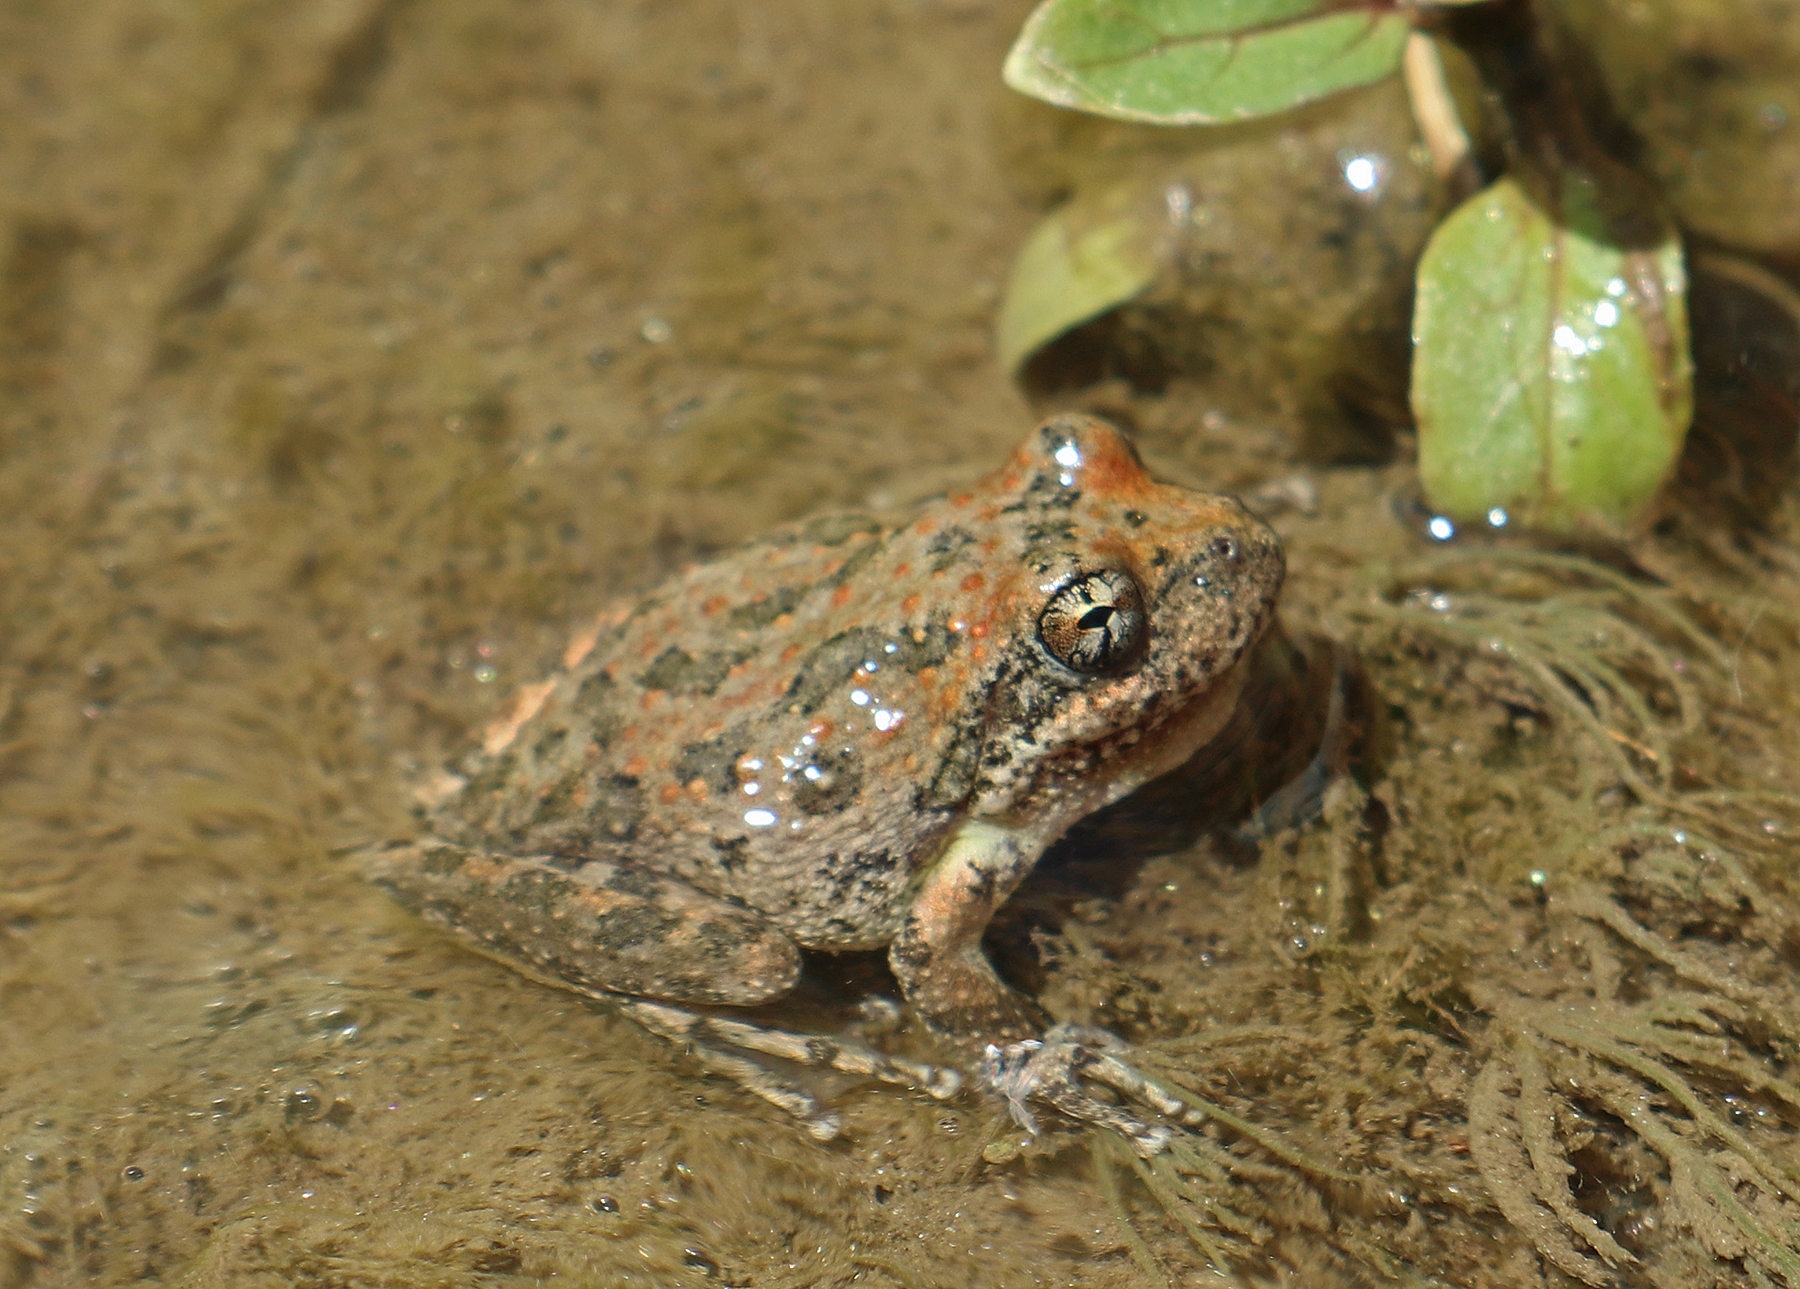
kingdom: Animalia
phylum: Chordata
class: Amphibia
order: Anura
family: Hylidae
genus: Pseudacris
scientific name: Pseudacris cadaverina
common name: California chorus frog
